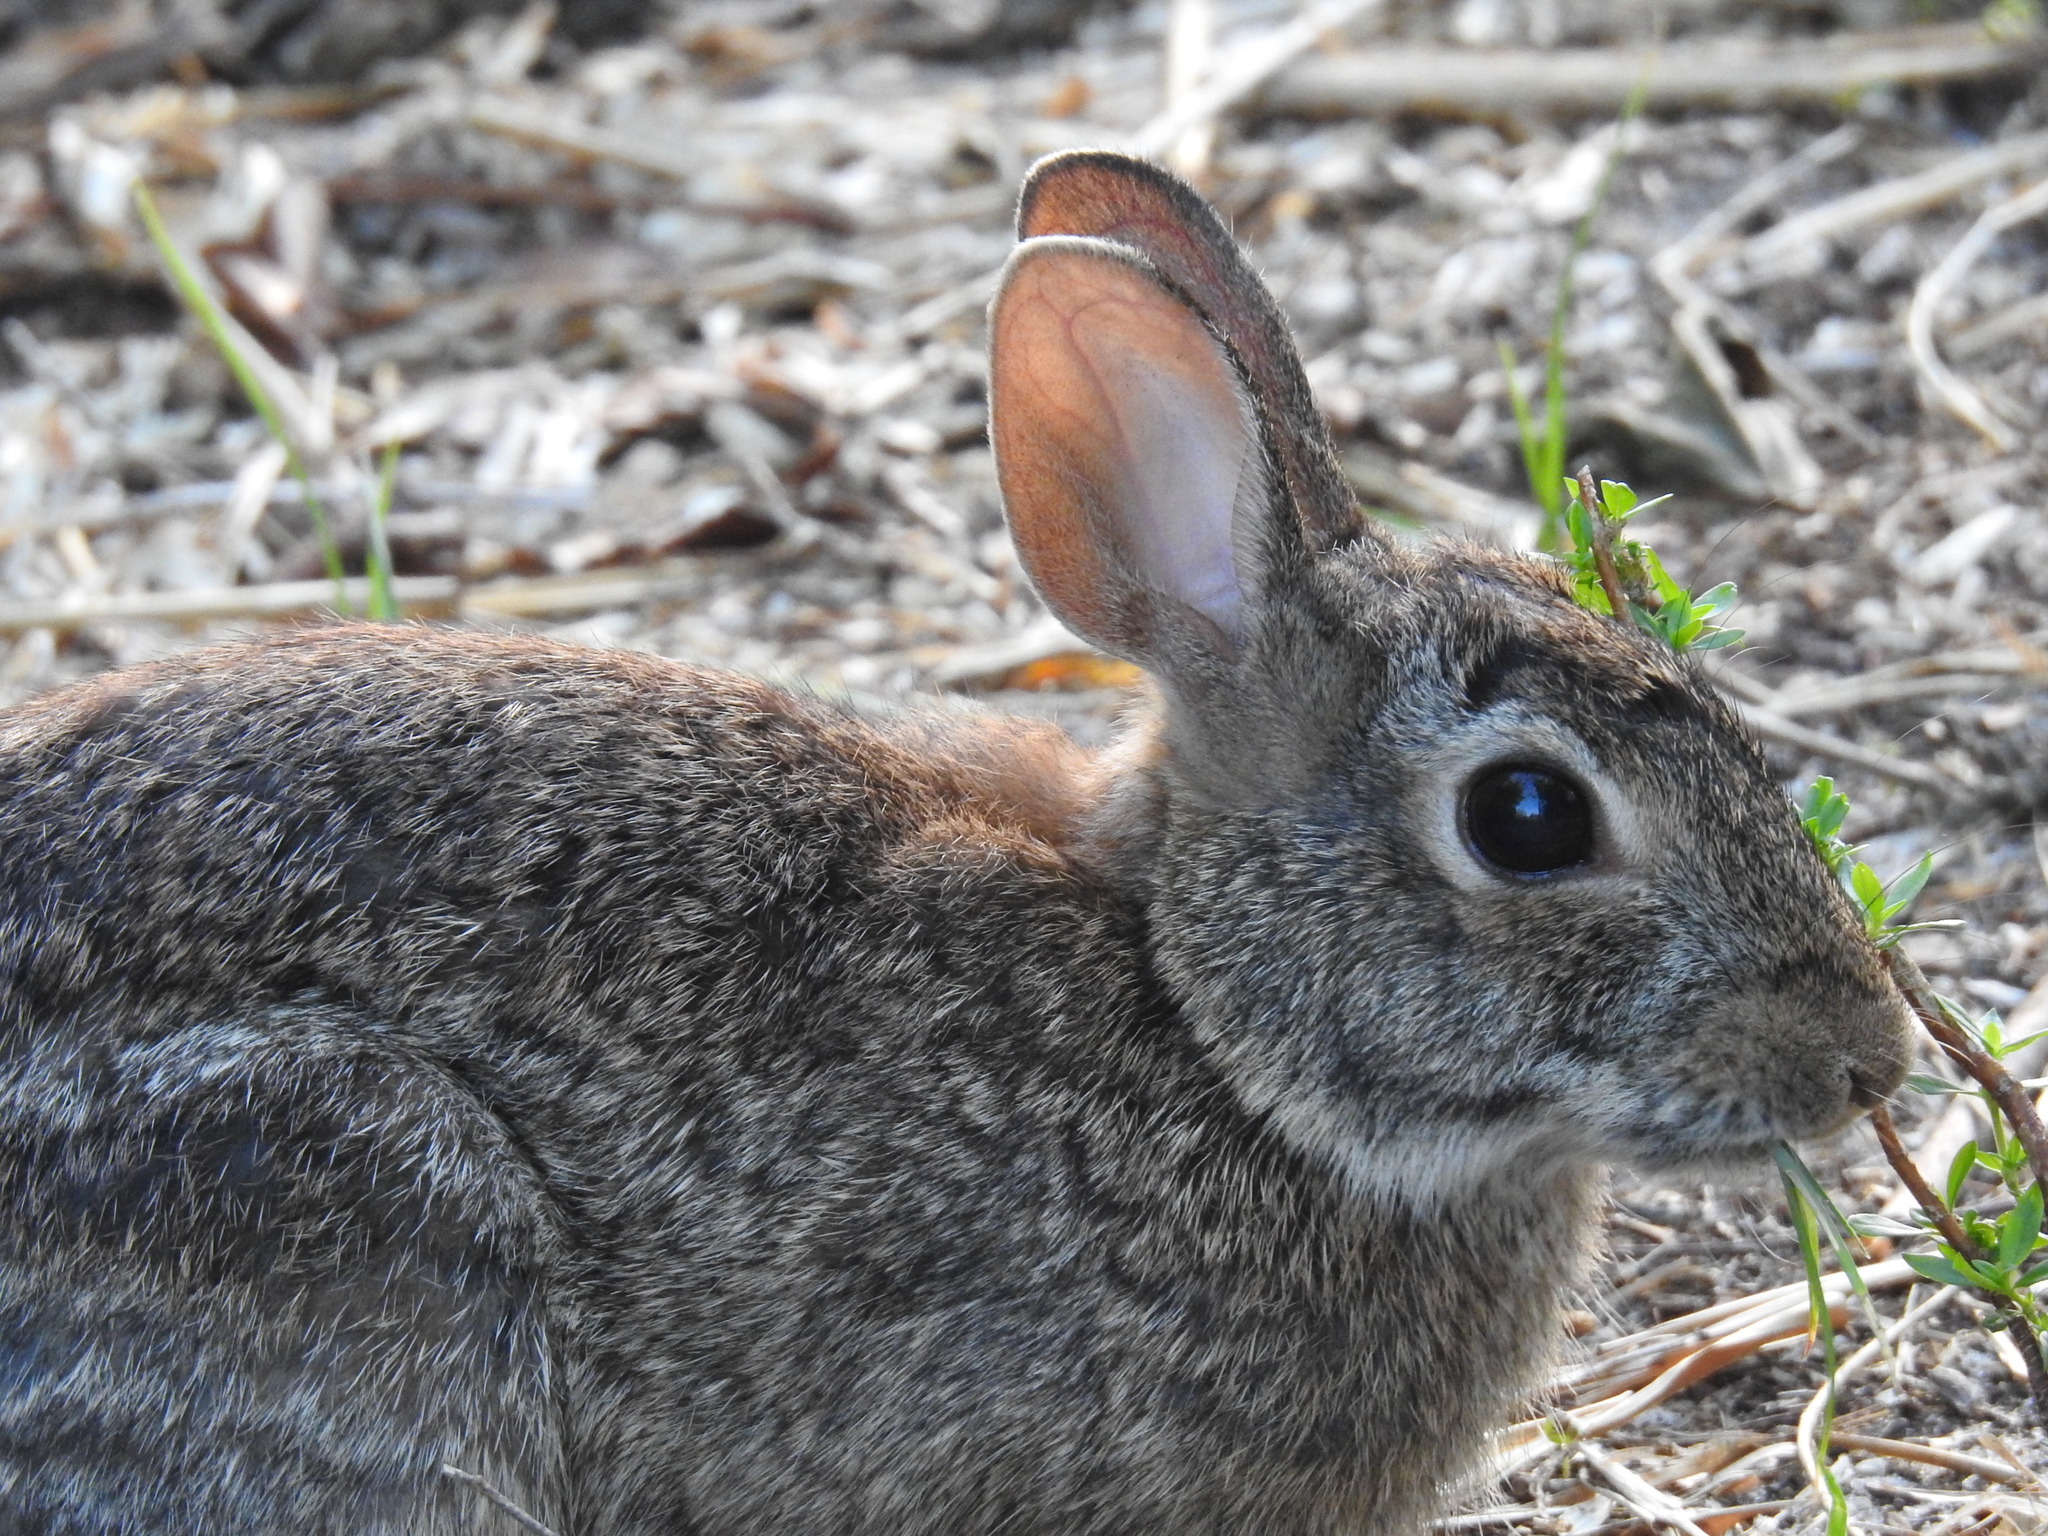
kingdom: Animalia
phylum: Chordata
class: Mammalia
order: Lagomorpha
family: Leporidae
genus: Sylvilagus
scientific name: Sylvilagus floridanus
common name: Eastern cottontail
